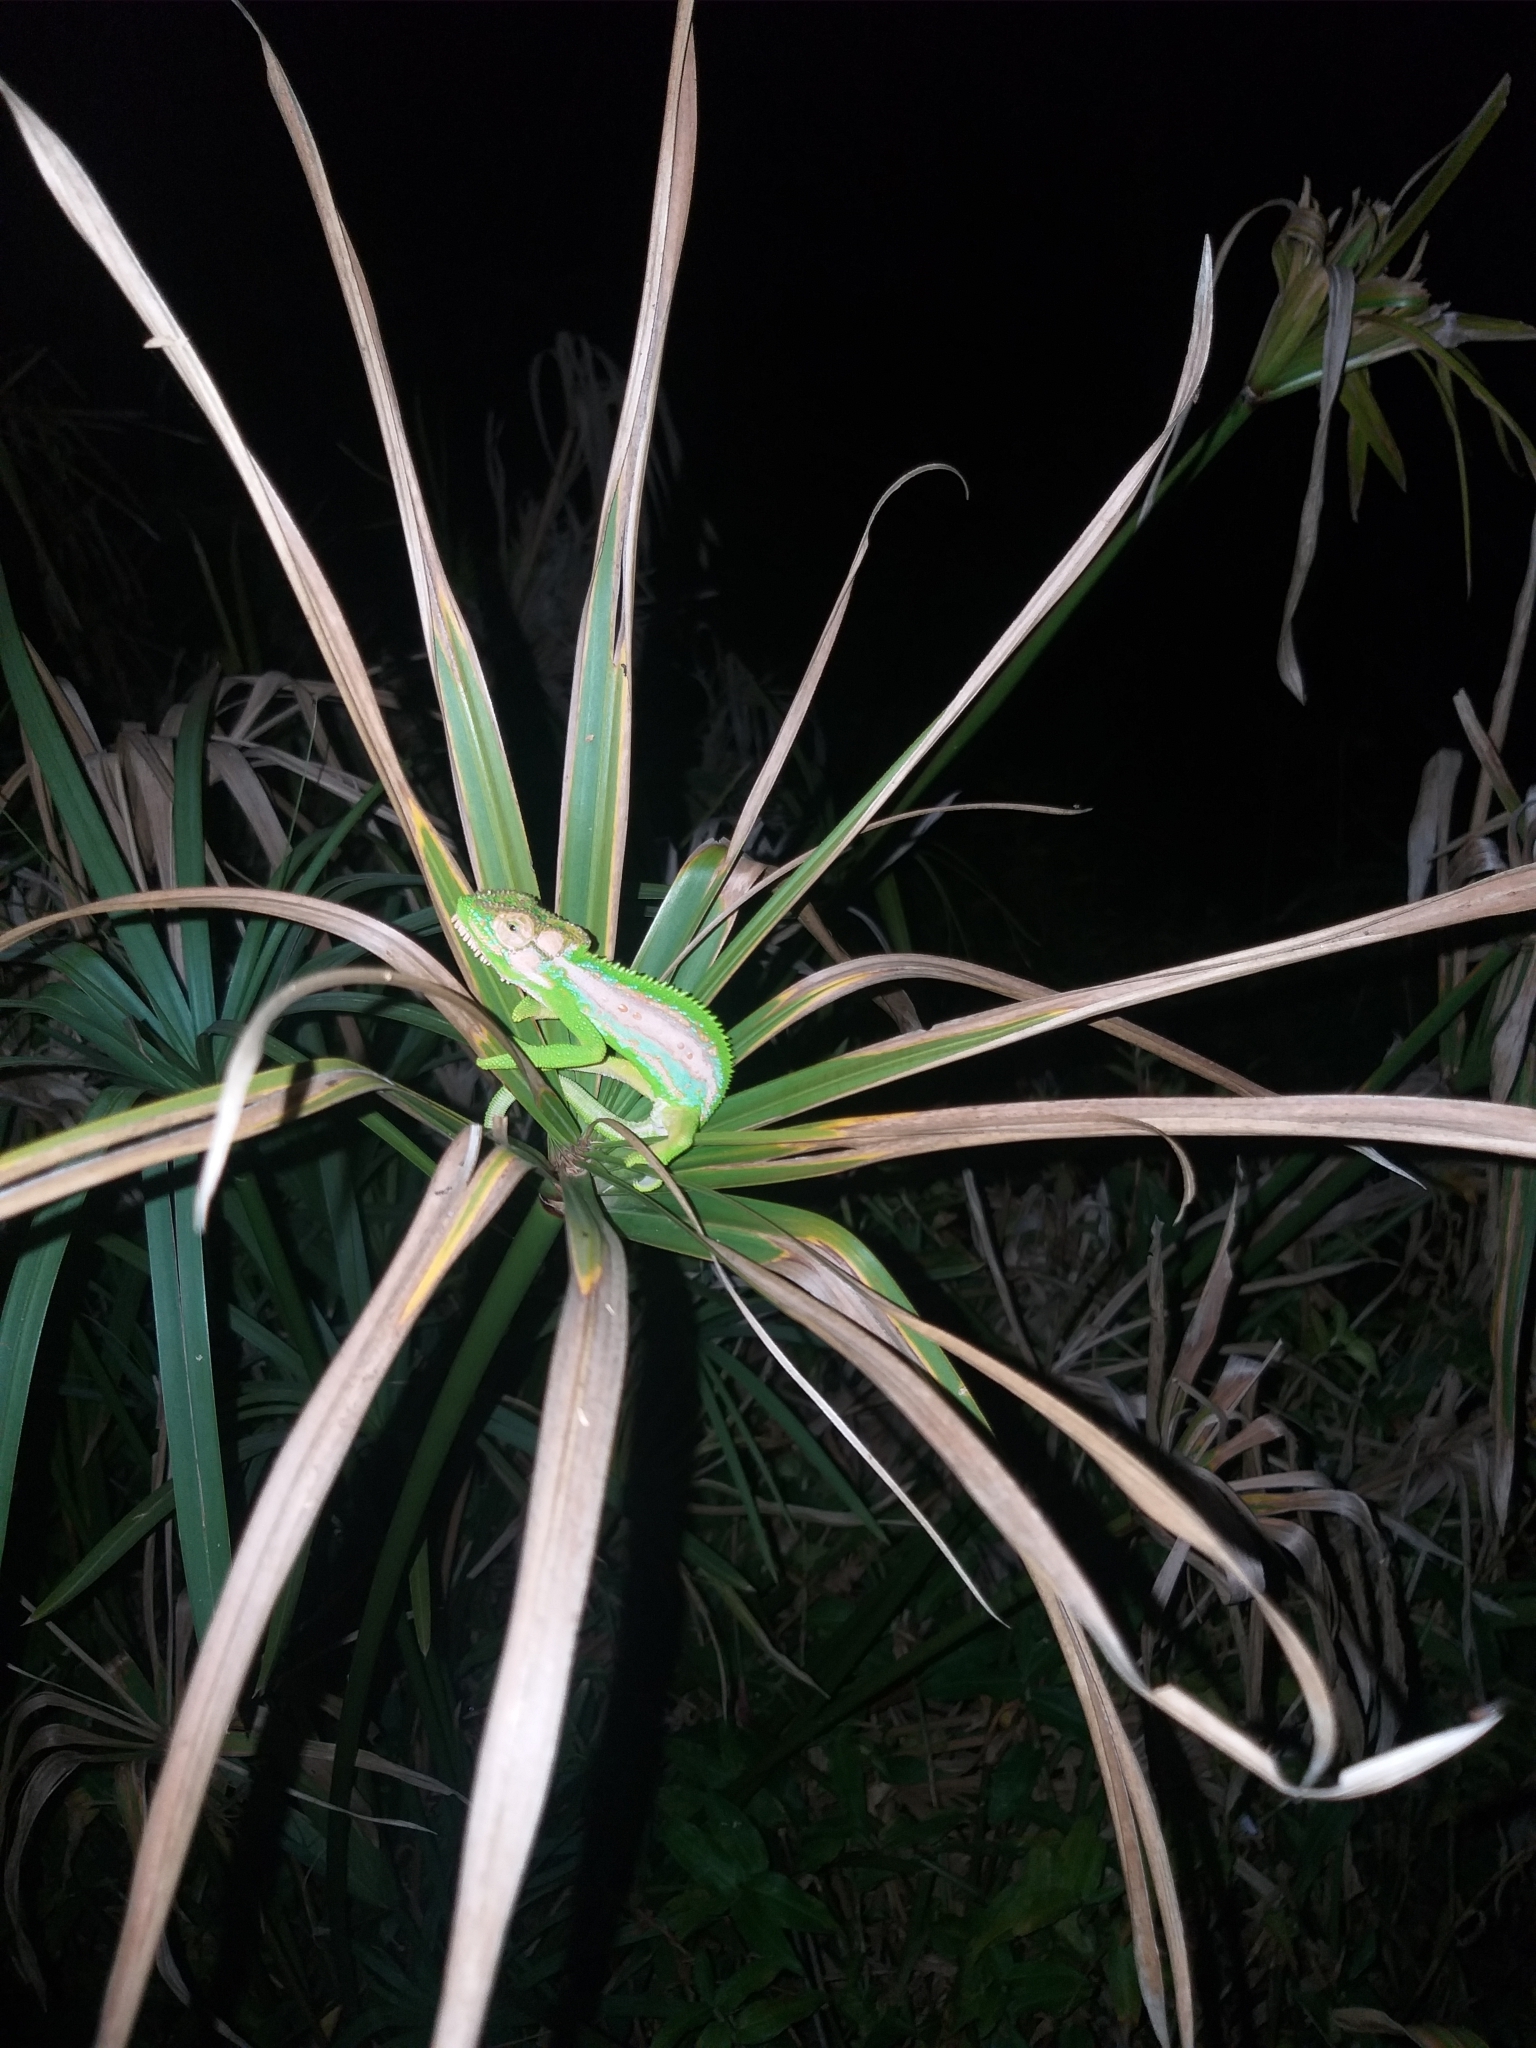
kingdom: Animalia
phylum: Chordata
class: Squamata
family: Chamaeleonidae
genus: Bradypodion
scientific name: Bradypodion pumilum
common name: Cape dwarf chameleon
